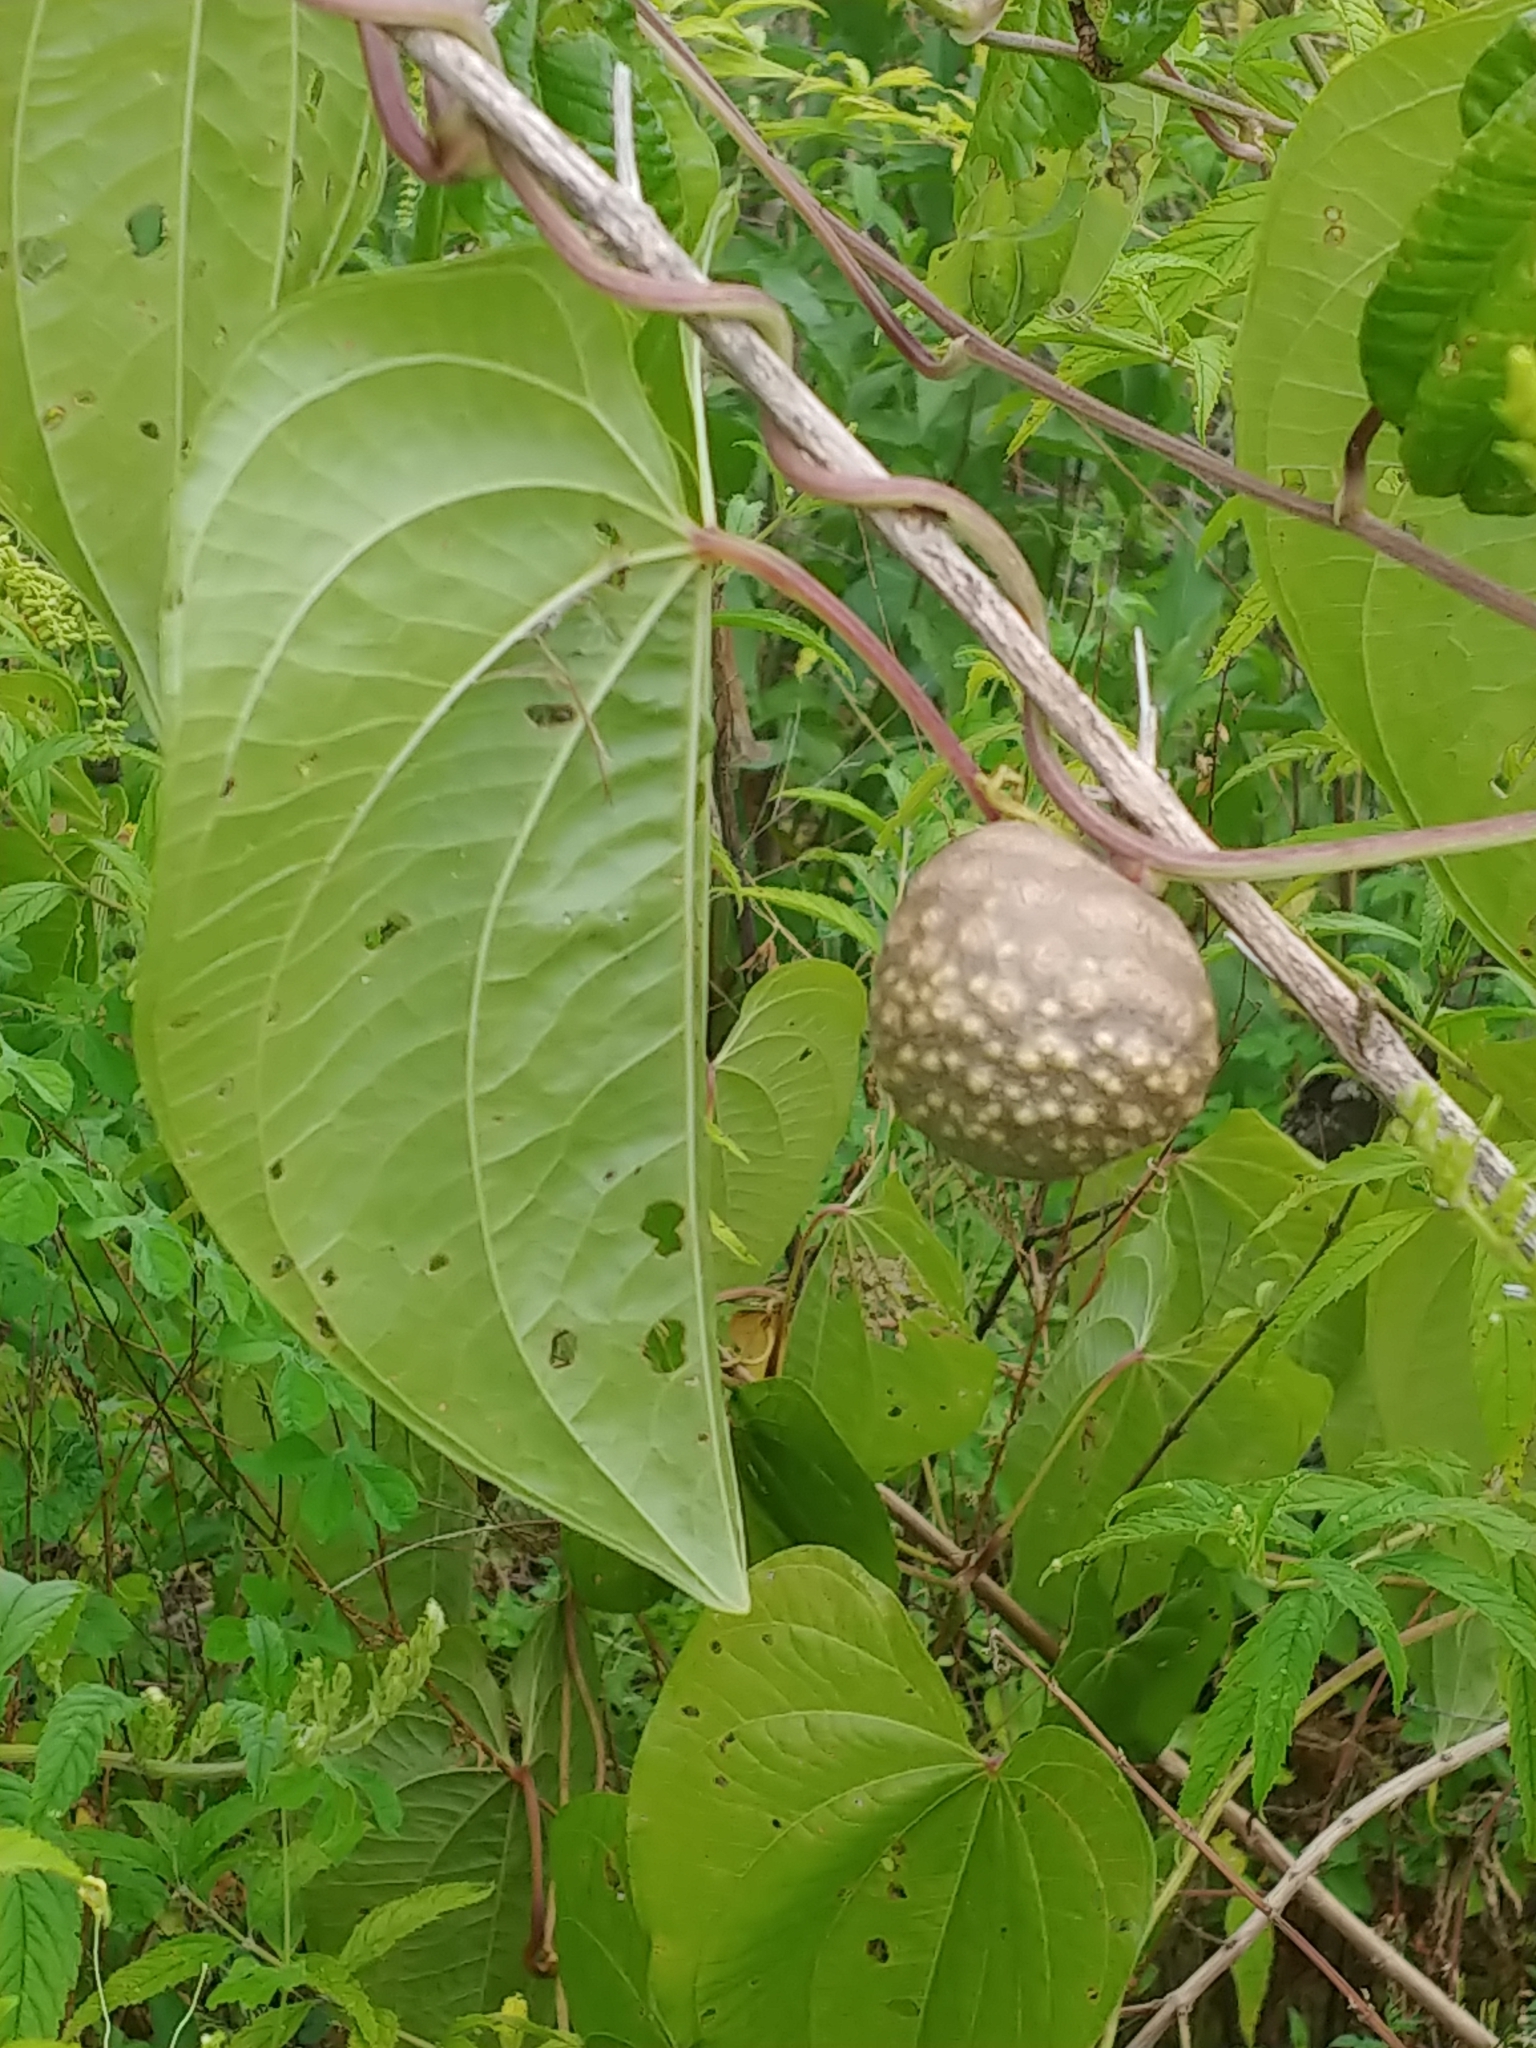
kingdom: Plantae
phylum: Tracheophyta
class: Liliopsida
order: Dioscoreales
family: Dioscoreaceae
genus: Dioscorea
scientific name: Dioscorea bulbifera
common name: Air yam
